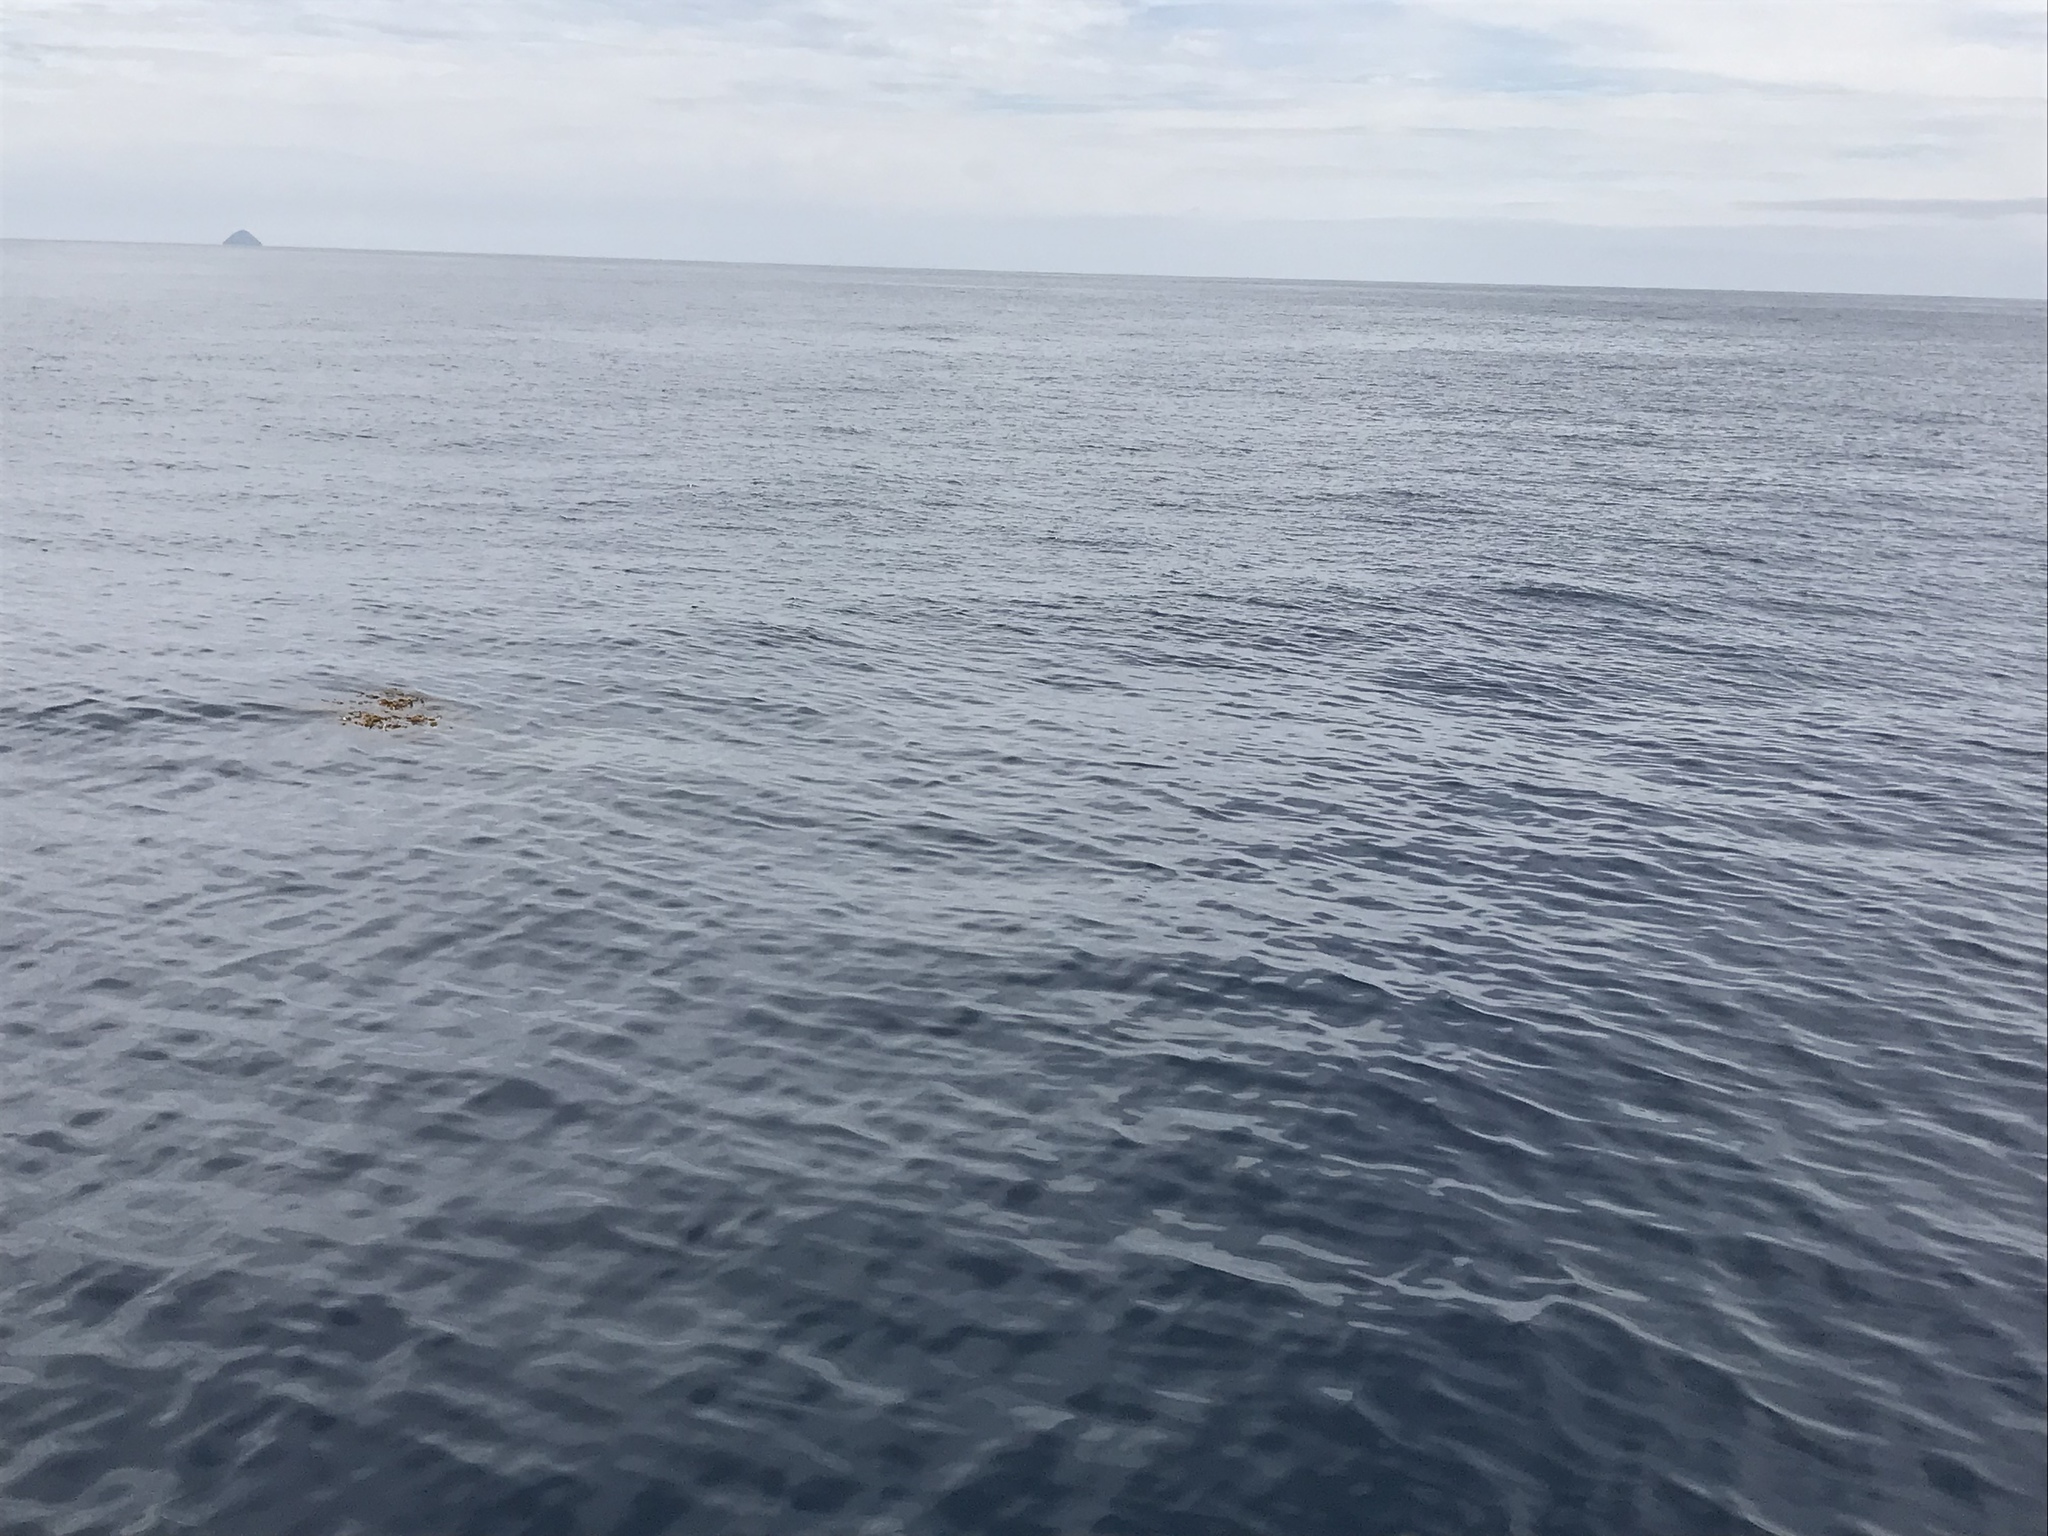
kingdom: Chromista
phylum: Ochrophyta
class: Phaeophyceae
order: Laminariales
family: Laminariaceae
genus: Macrocystis
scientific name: Macrocystis pyrifera
